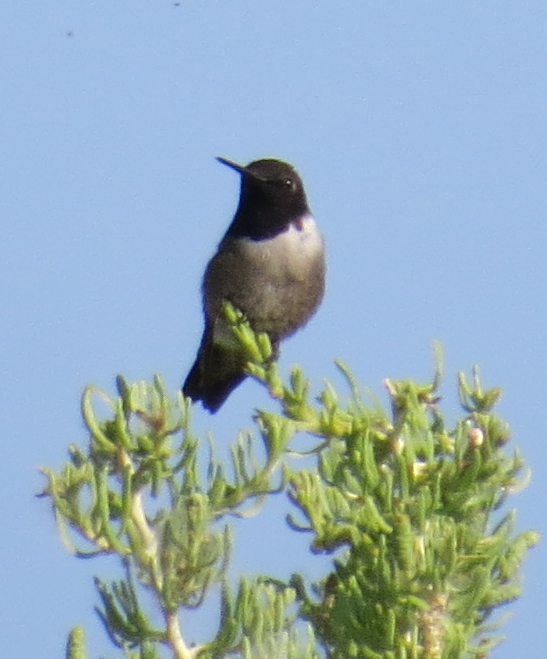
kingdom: Animalia
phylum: Chordata
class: Aves
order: Apodiformes
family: Trochilidae
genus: Archilochus
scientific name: Archilochus alexandri
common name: Black-chinned hummingbird
